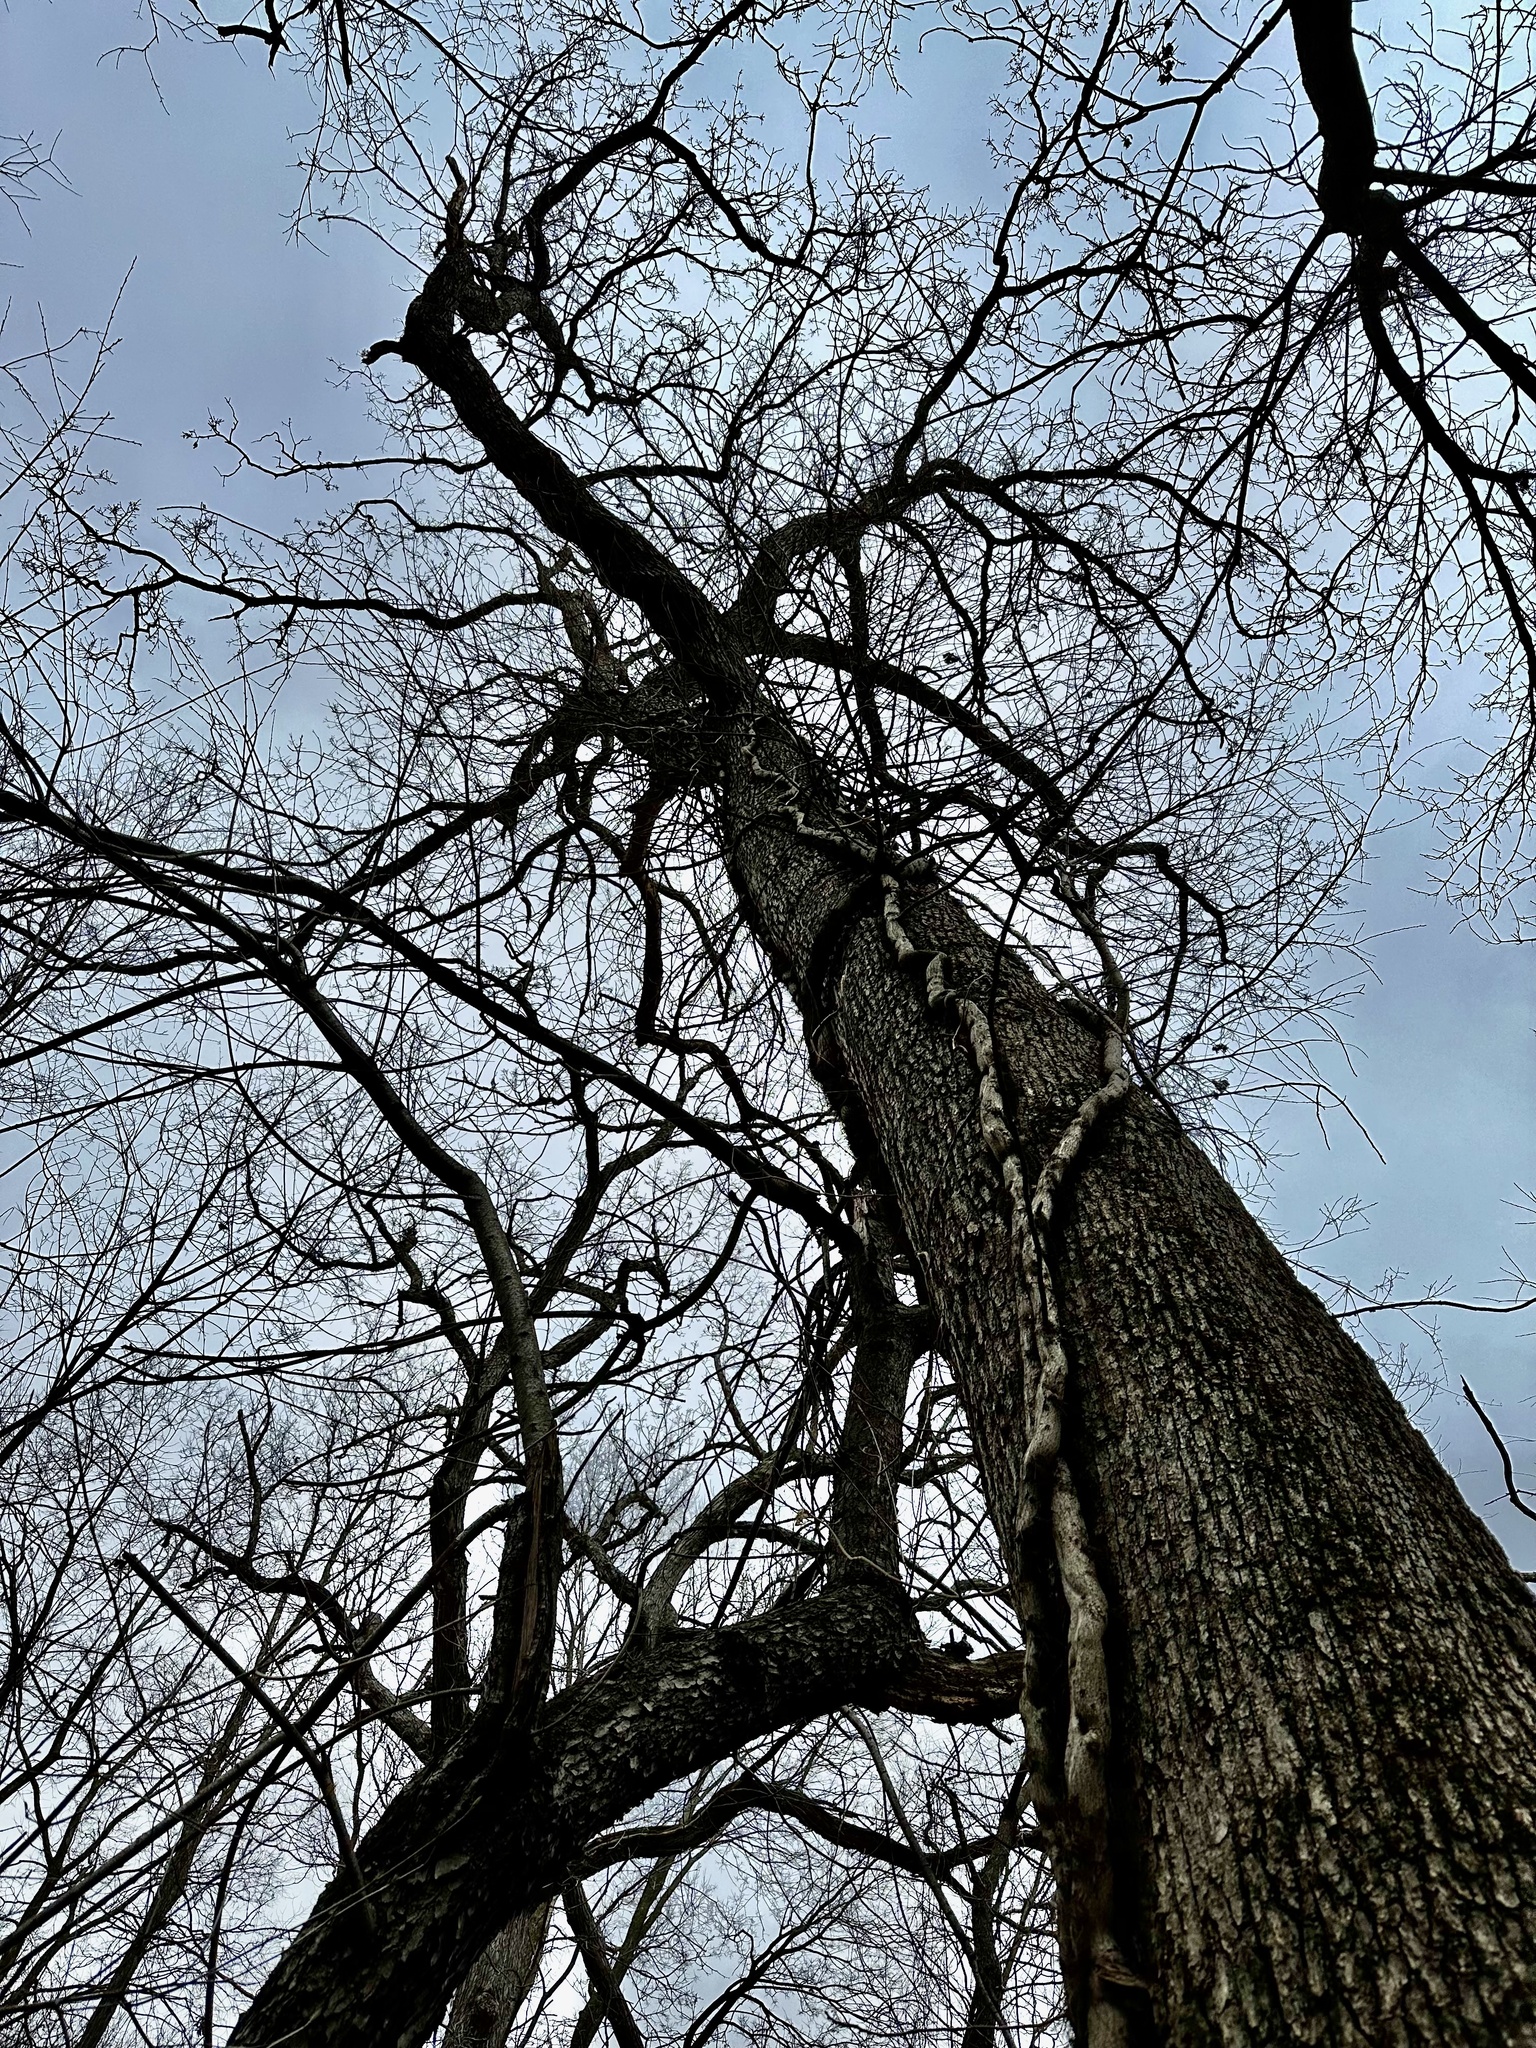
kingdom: Plantae
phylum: Tracheophyta
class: Magnoliopsida
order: Sapindales
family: Anacardiaceae
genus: Toxicodendron
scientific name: Toxicodendron radicans
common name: Poison ivy
